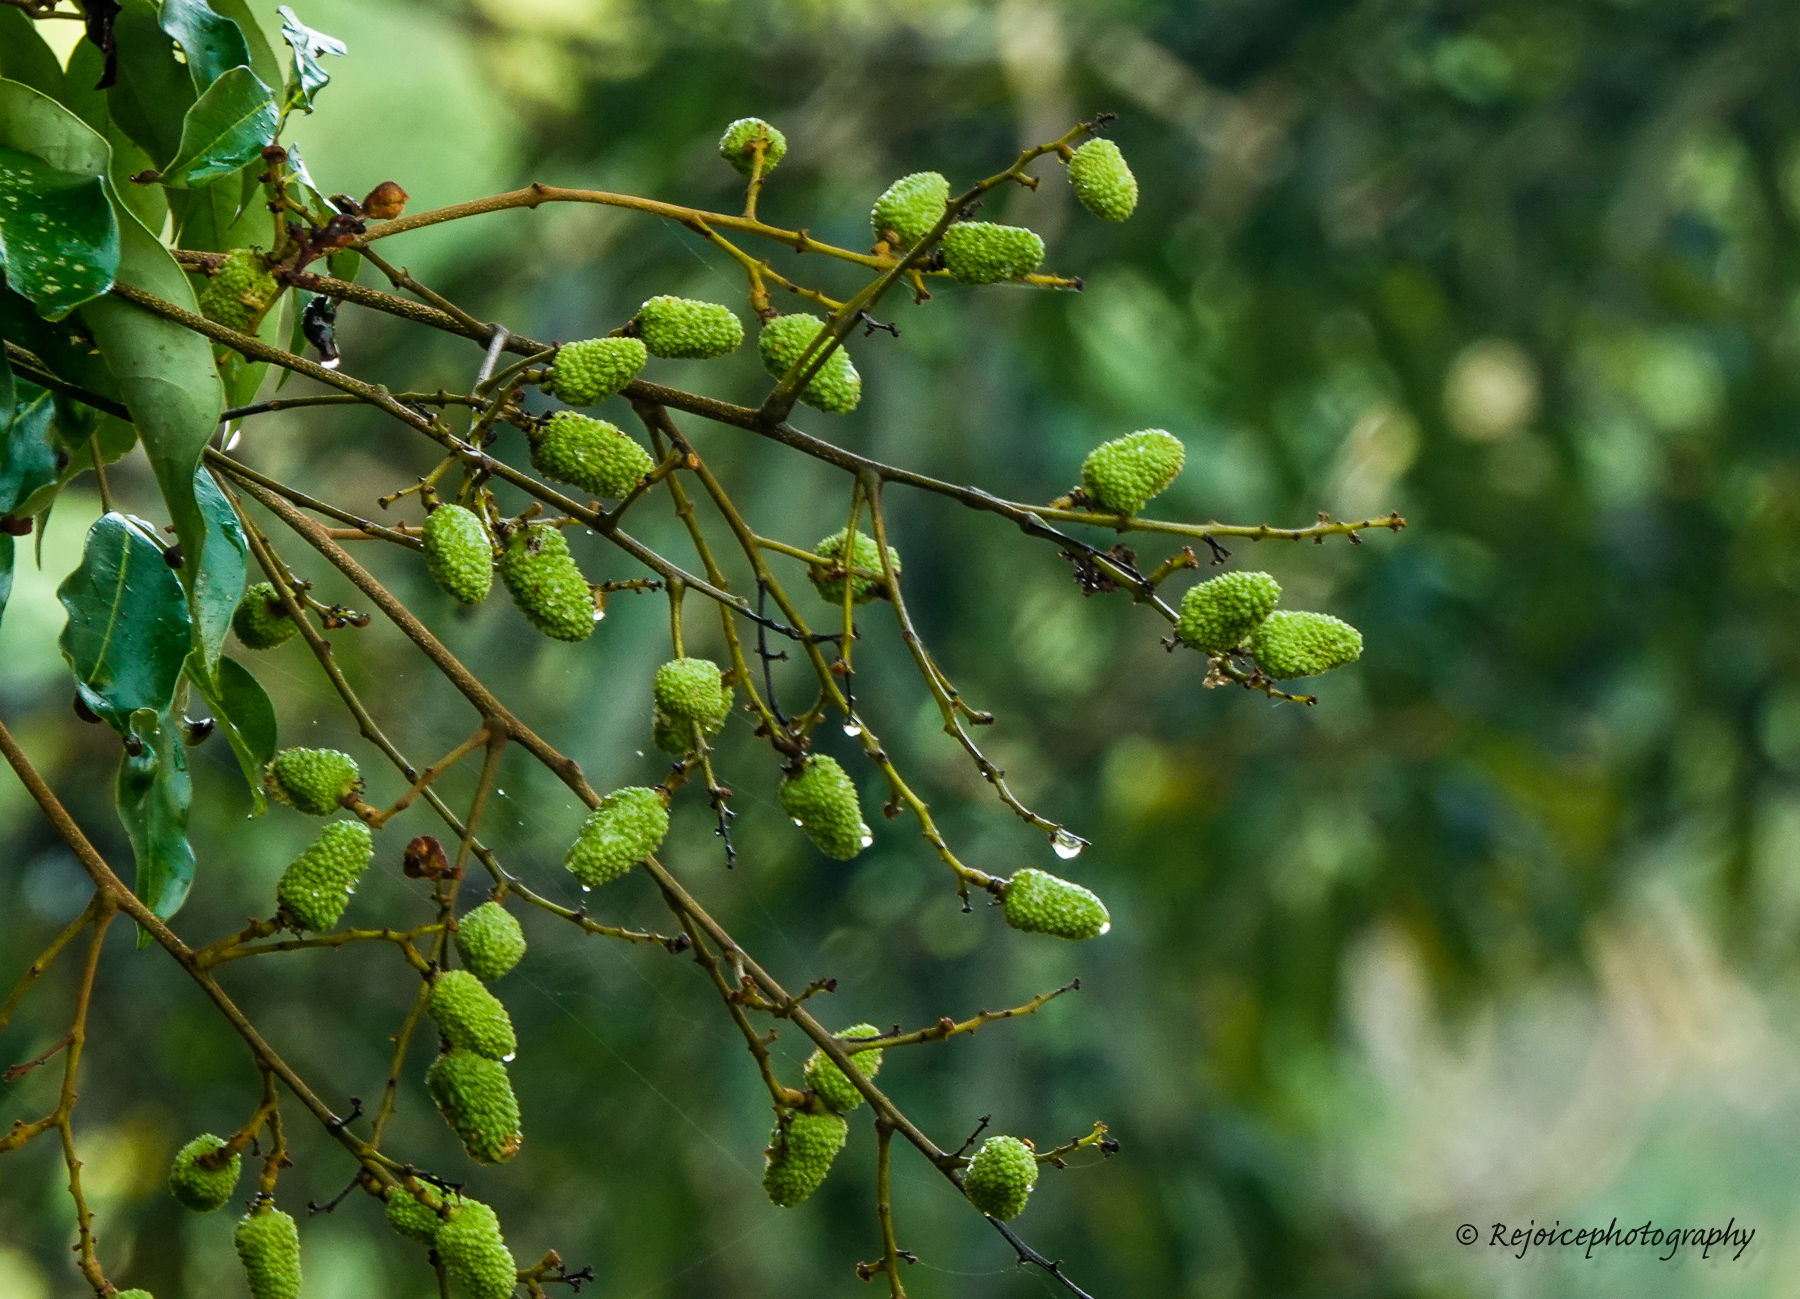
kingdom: Plantae
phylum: Tracheophyta
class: Magnoliopsida
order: Sapindales
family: Sapindaceae
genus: Litchi
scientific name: Litchi chinensis
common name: Litchi
